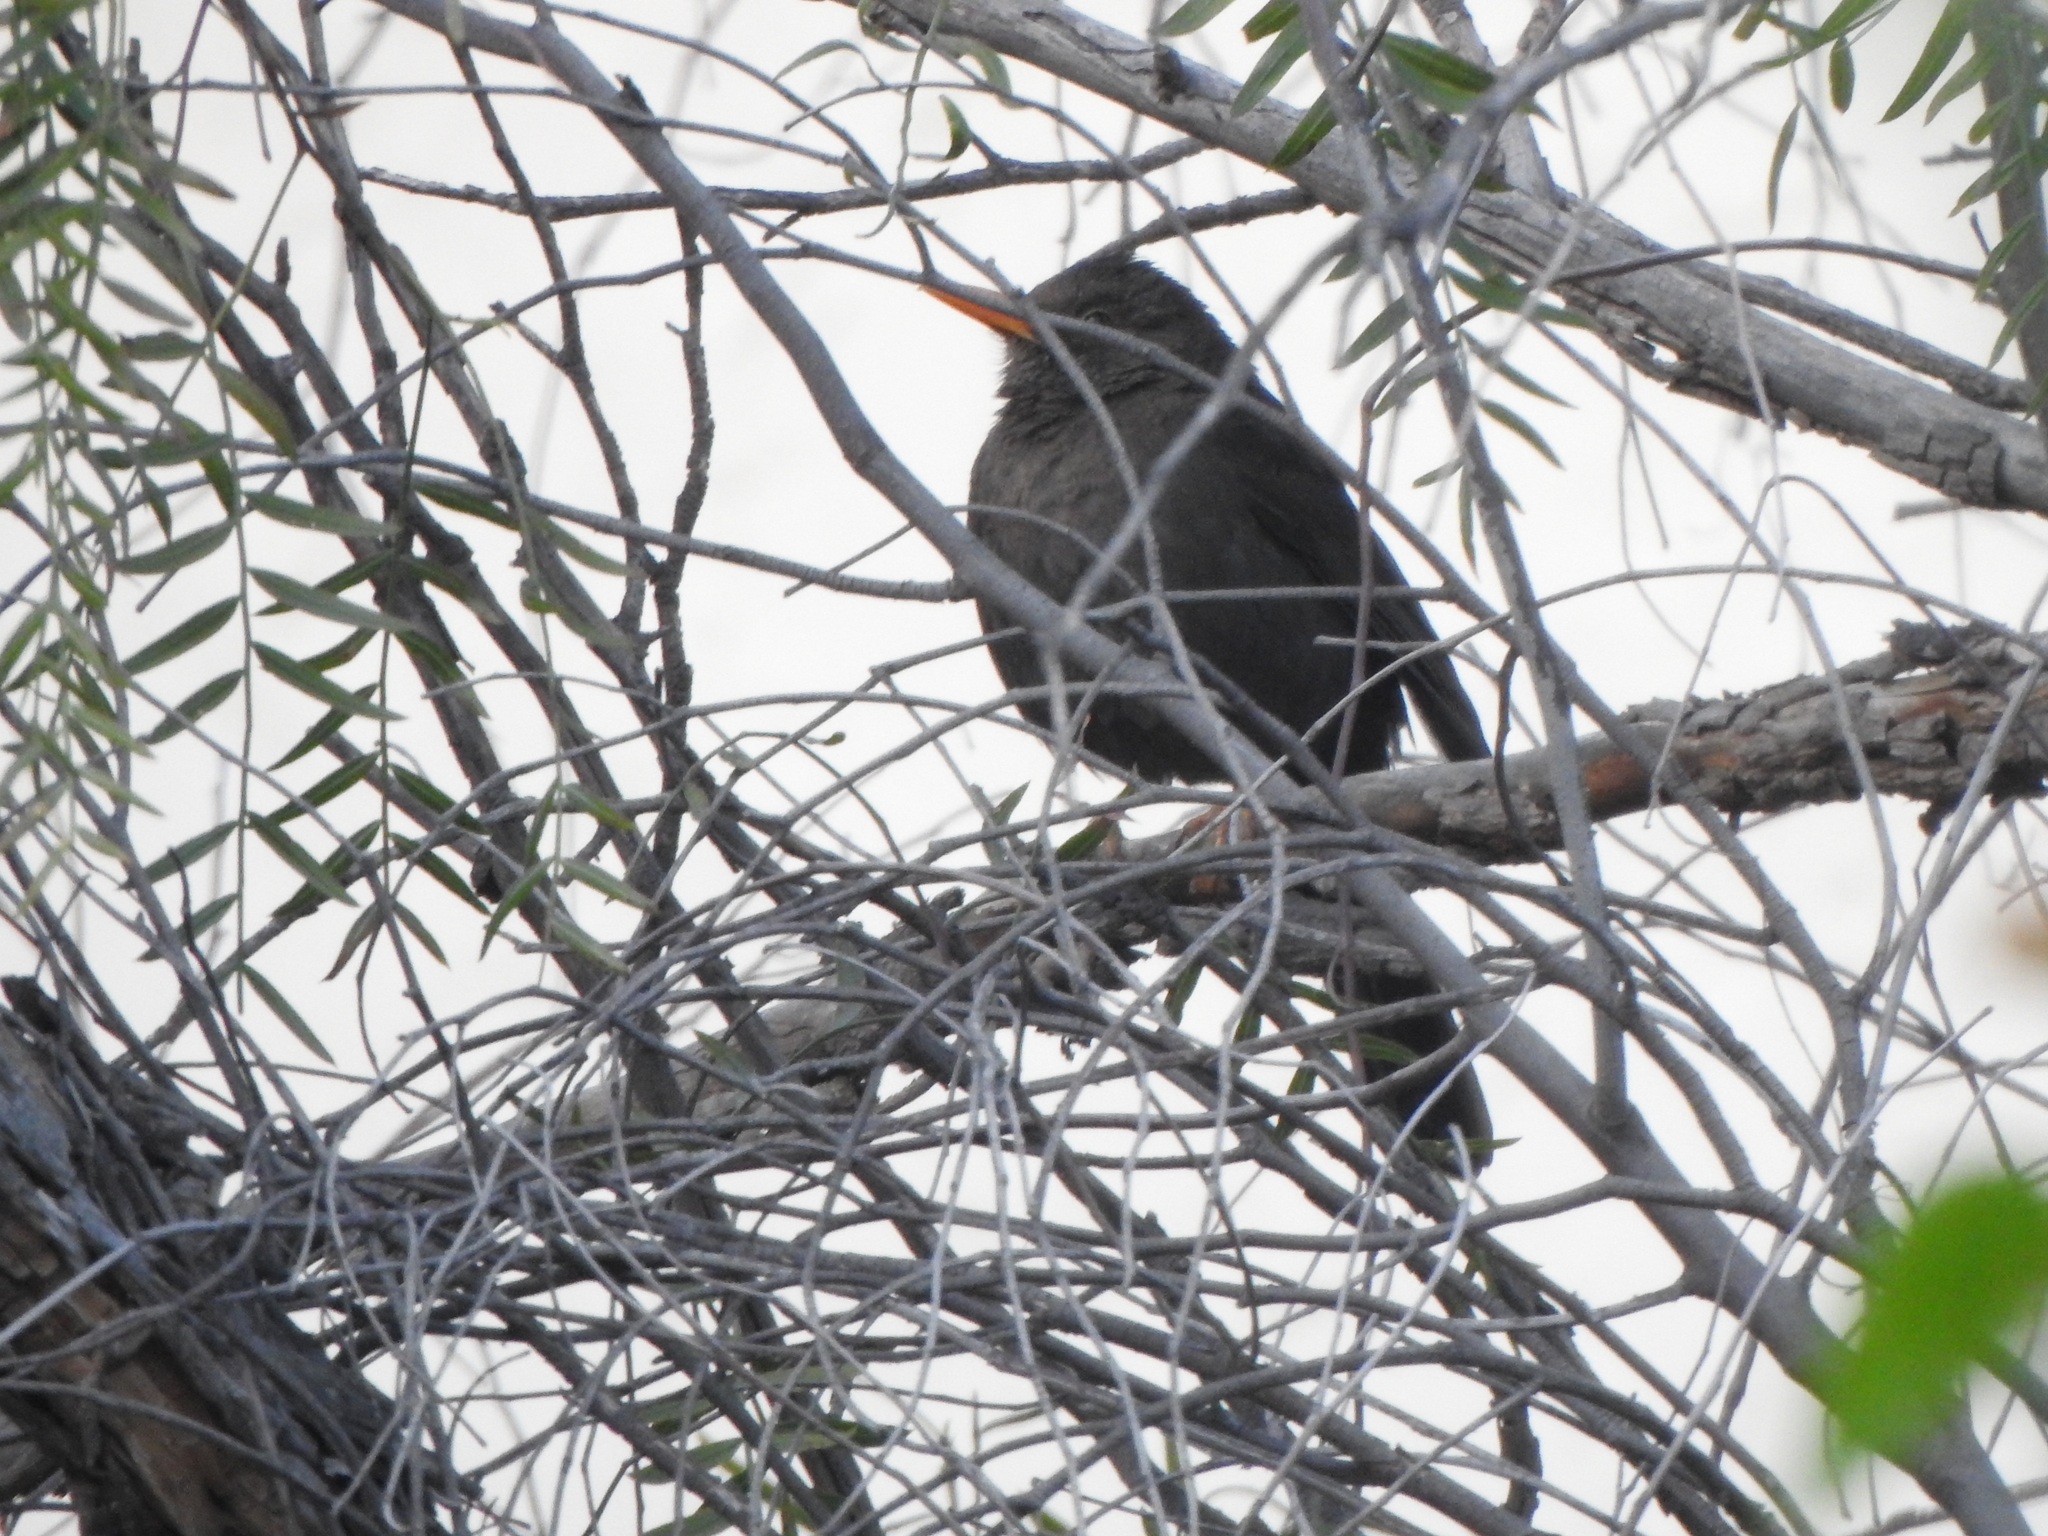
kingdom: Animalia
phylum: Chordata
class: Aves
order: Passeriformes
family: Turdidae
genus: Turdus
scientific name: Turdus chiguanco
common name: Chiguanco thrush
